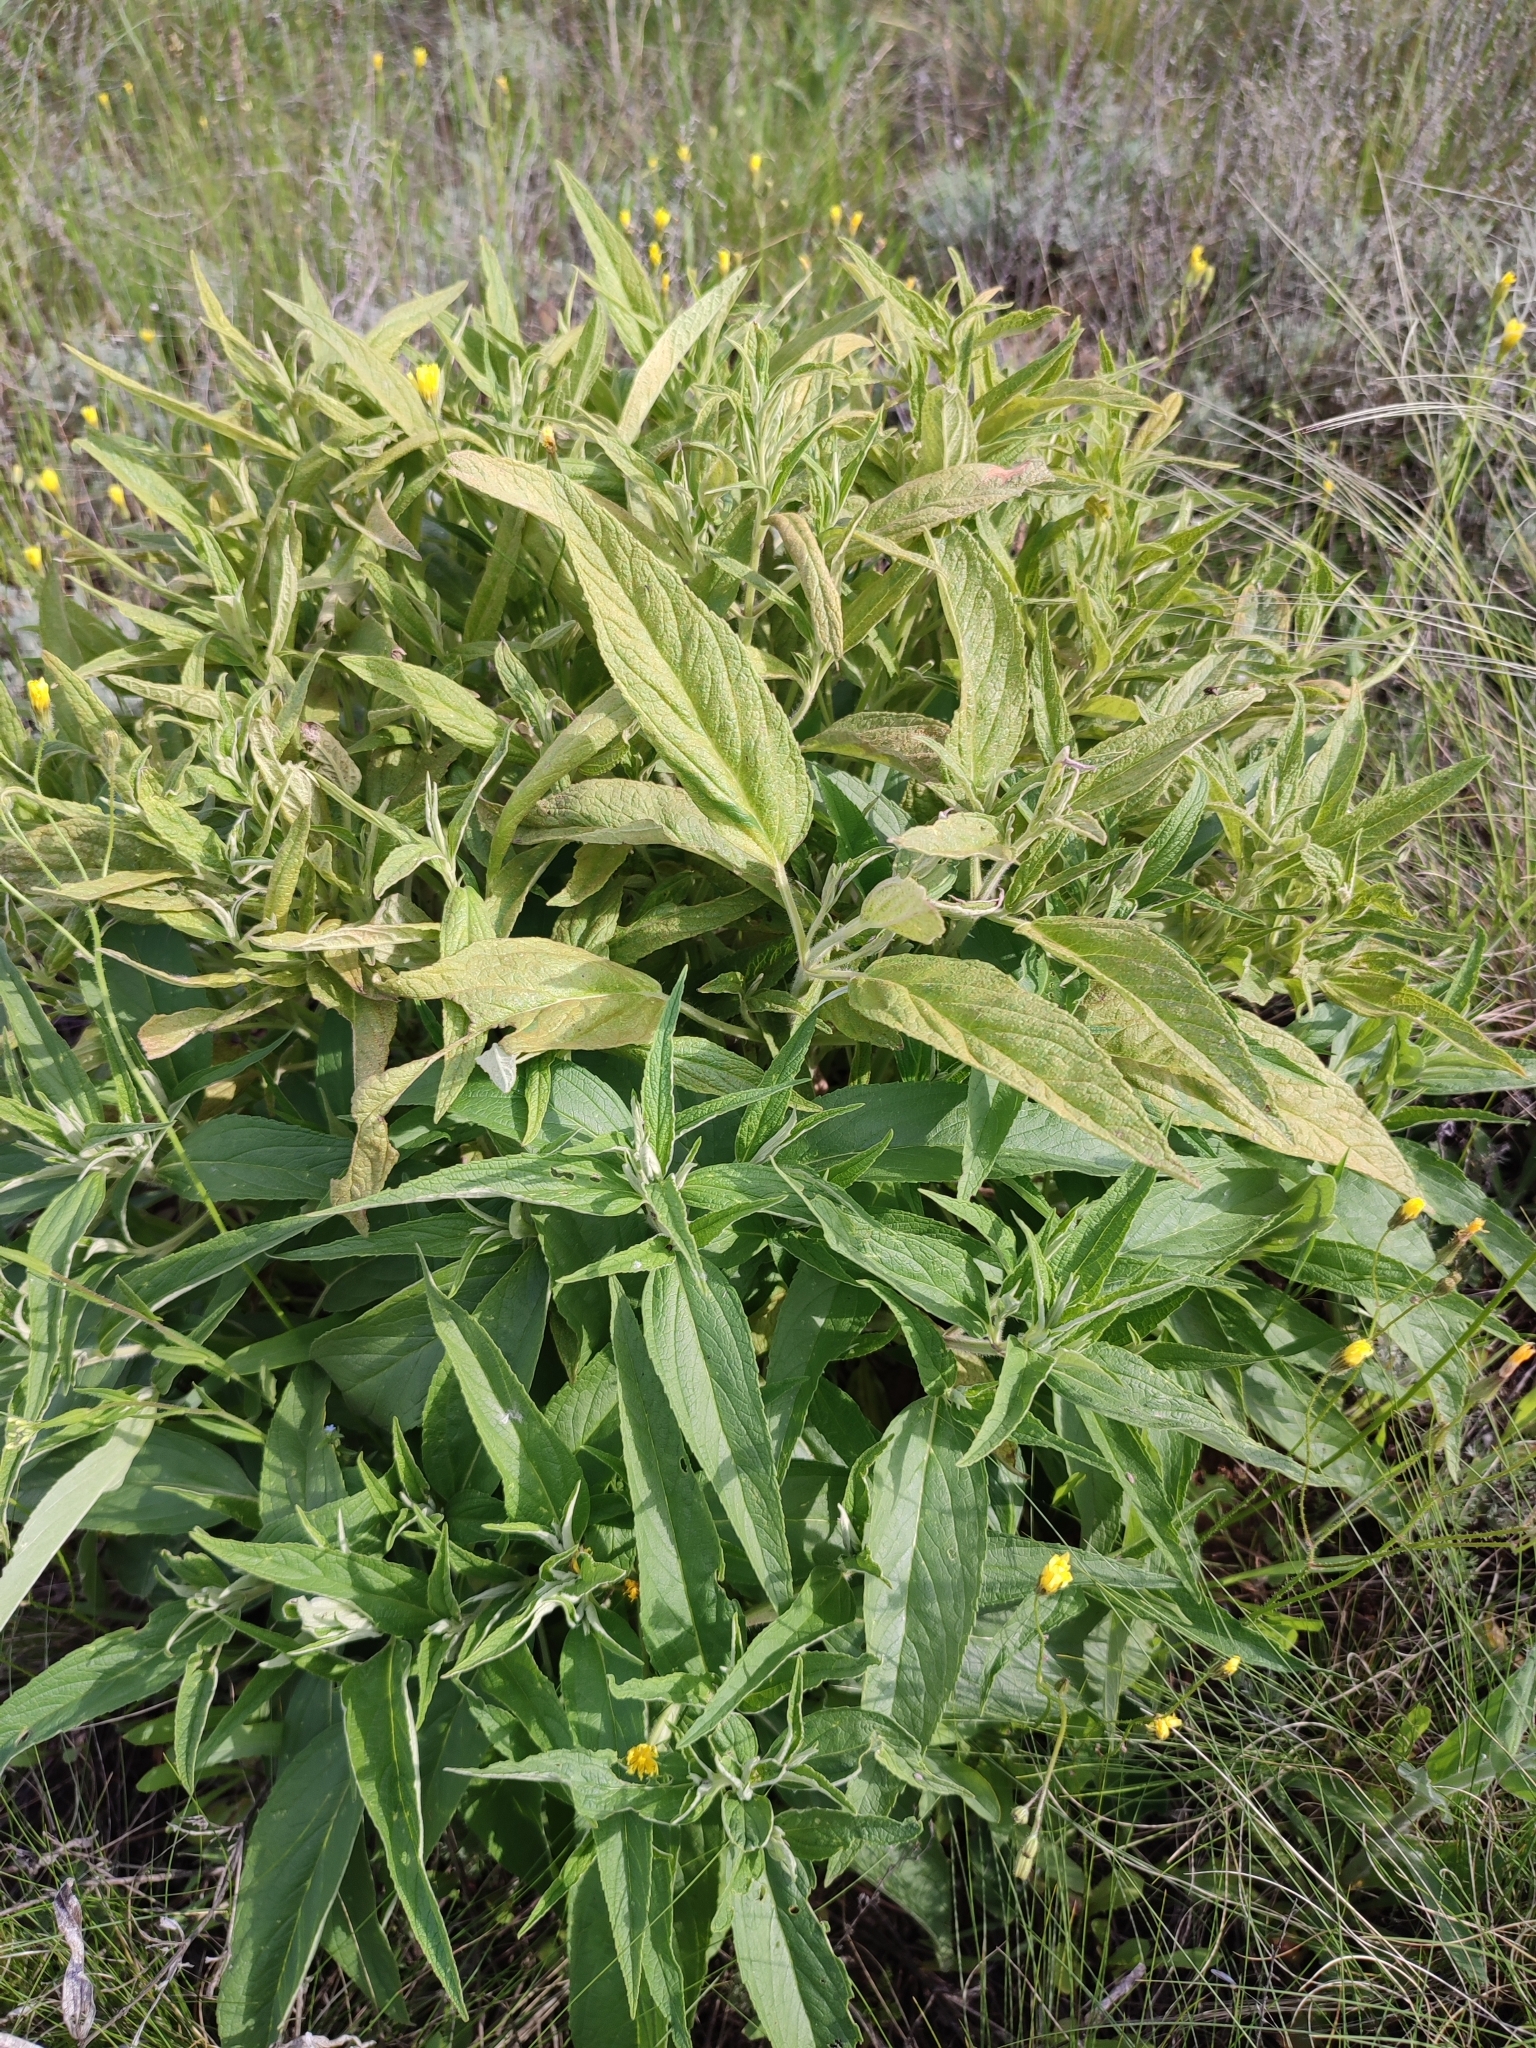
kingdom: Plantae
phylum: Tracheophyta
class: Magnoliopsida
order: Lamiales
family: Lamiaceae
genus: Phlomis
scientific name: Phlomis herba-venti
